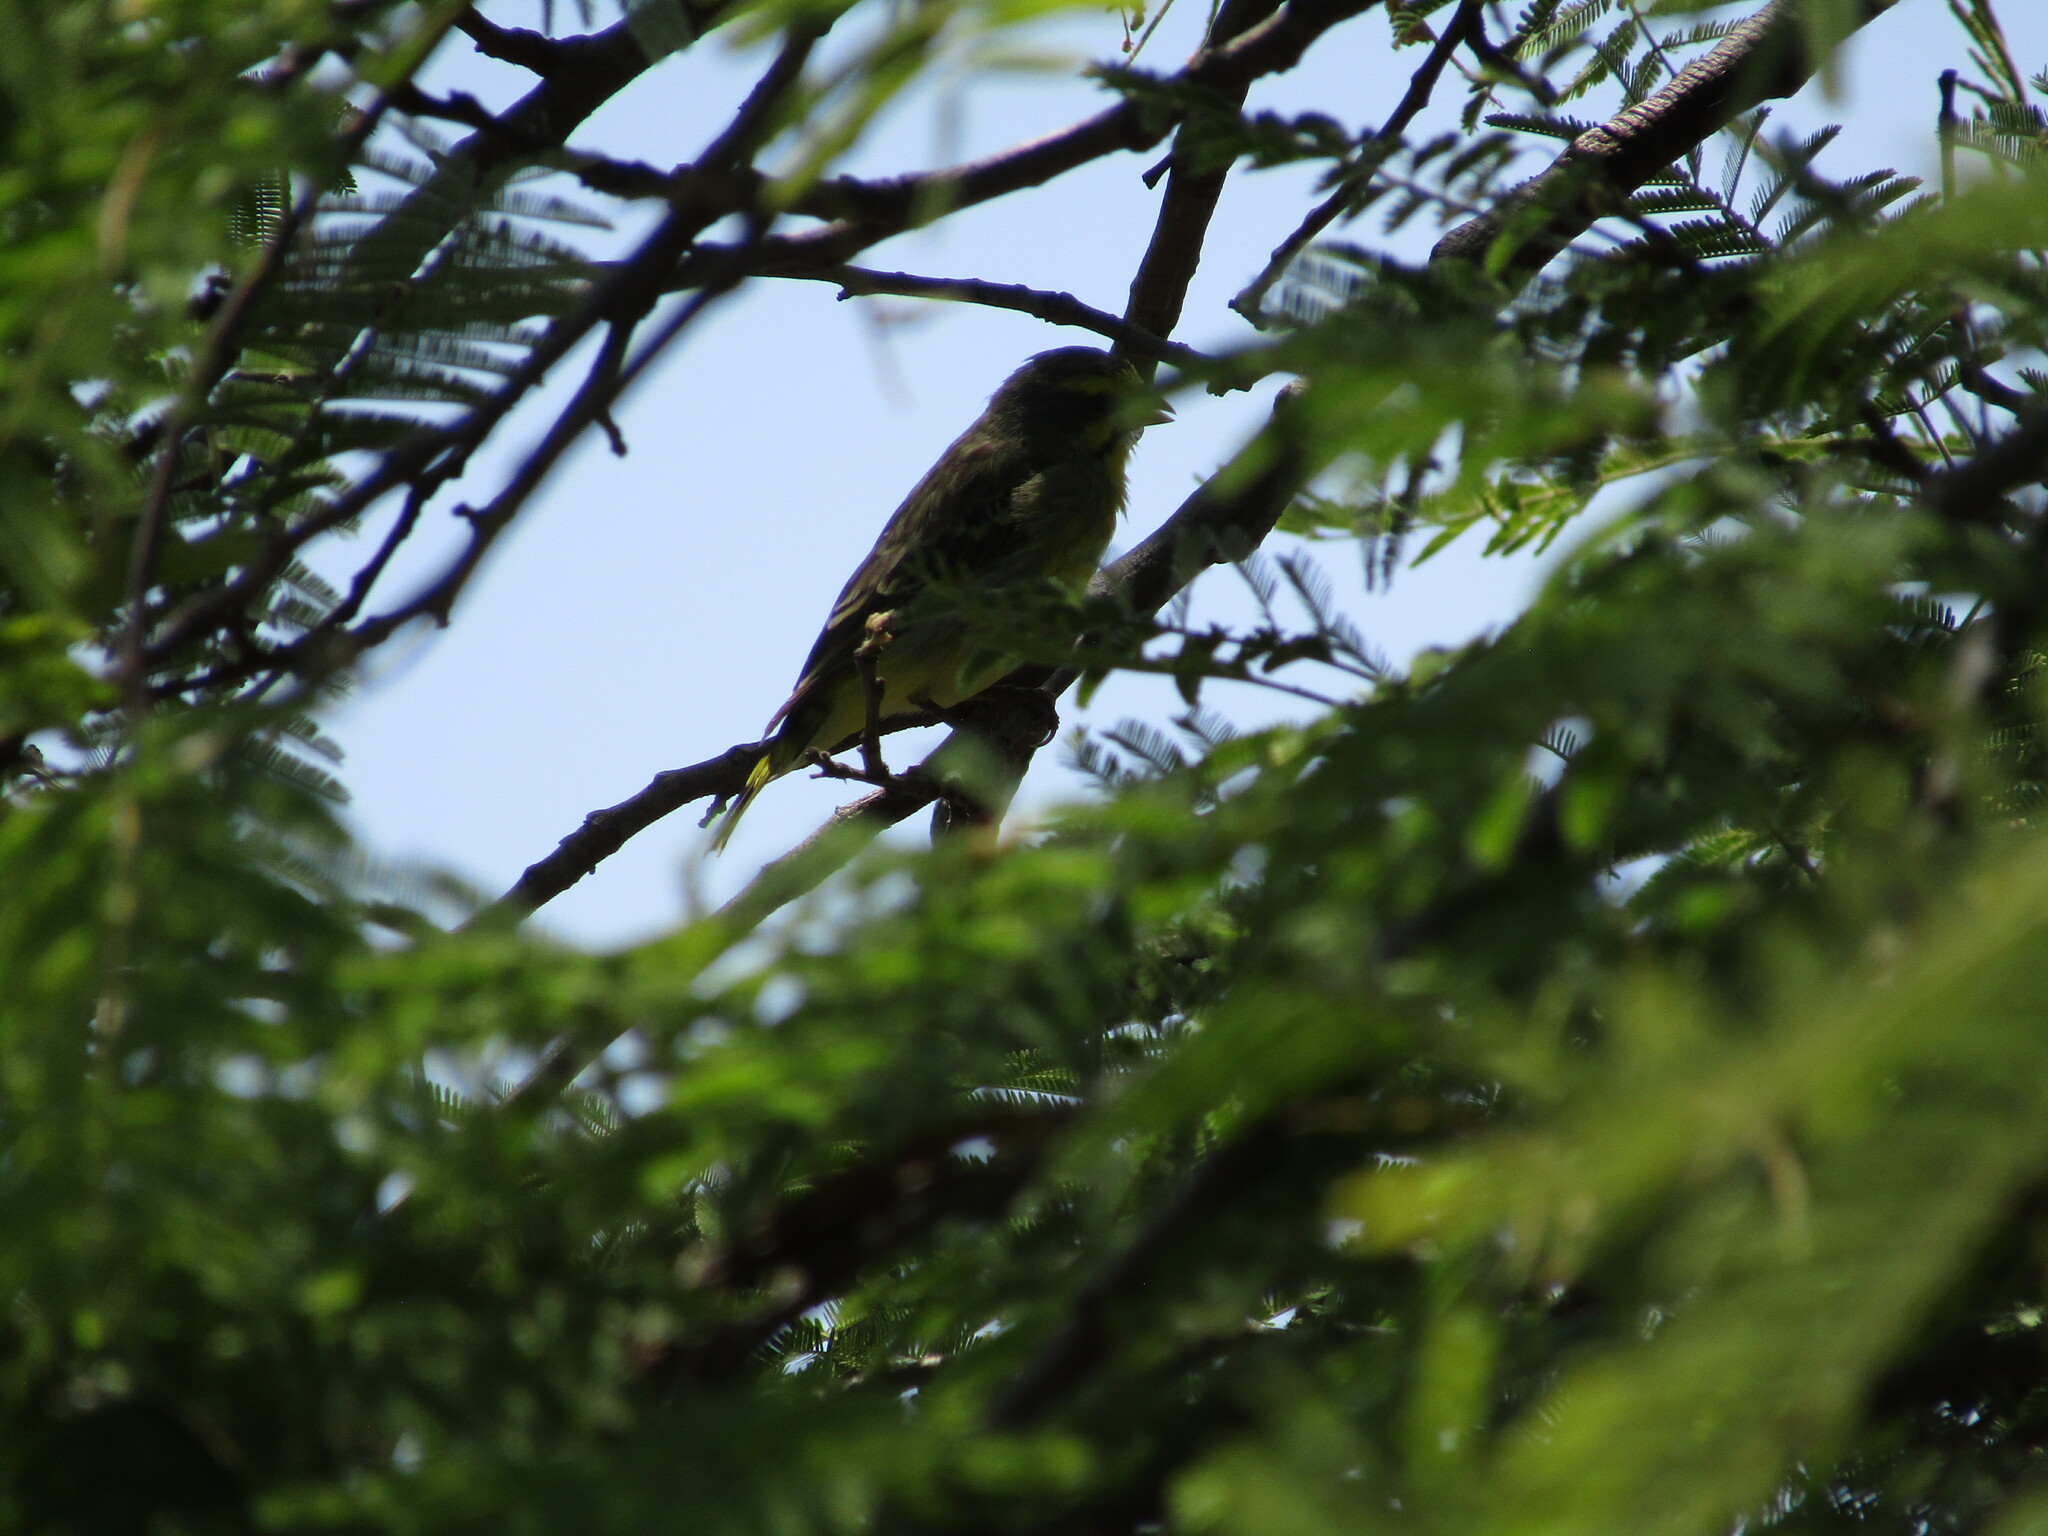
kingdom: Animalia
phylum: Chordata
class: Aves
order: Passeriformes
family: Fringillidae
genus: Crithagra
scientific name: Crithagra mozambica
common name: Yellow-fronted canary
